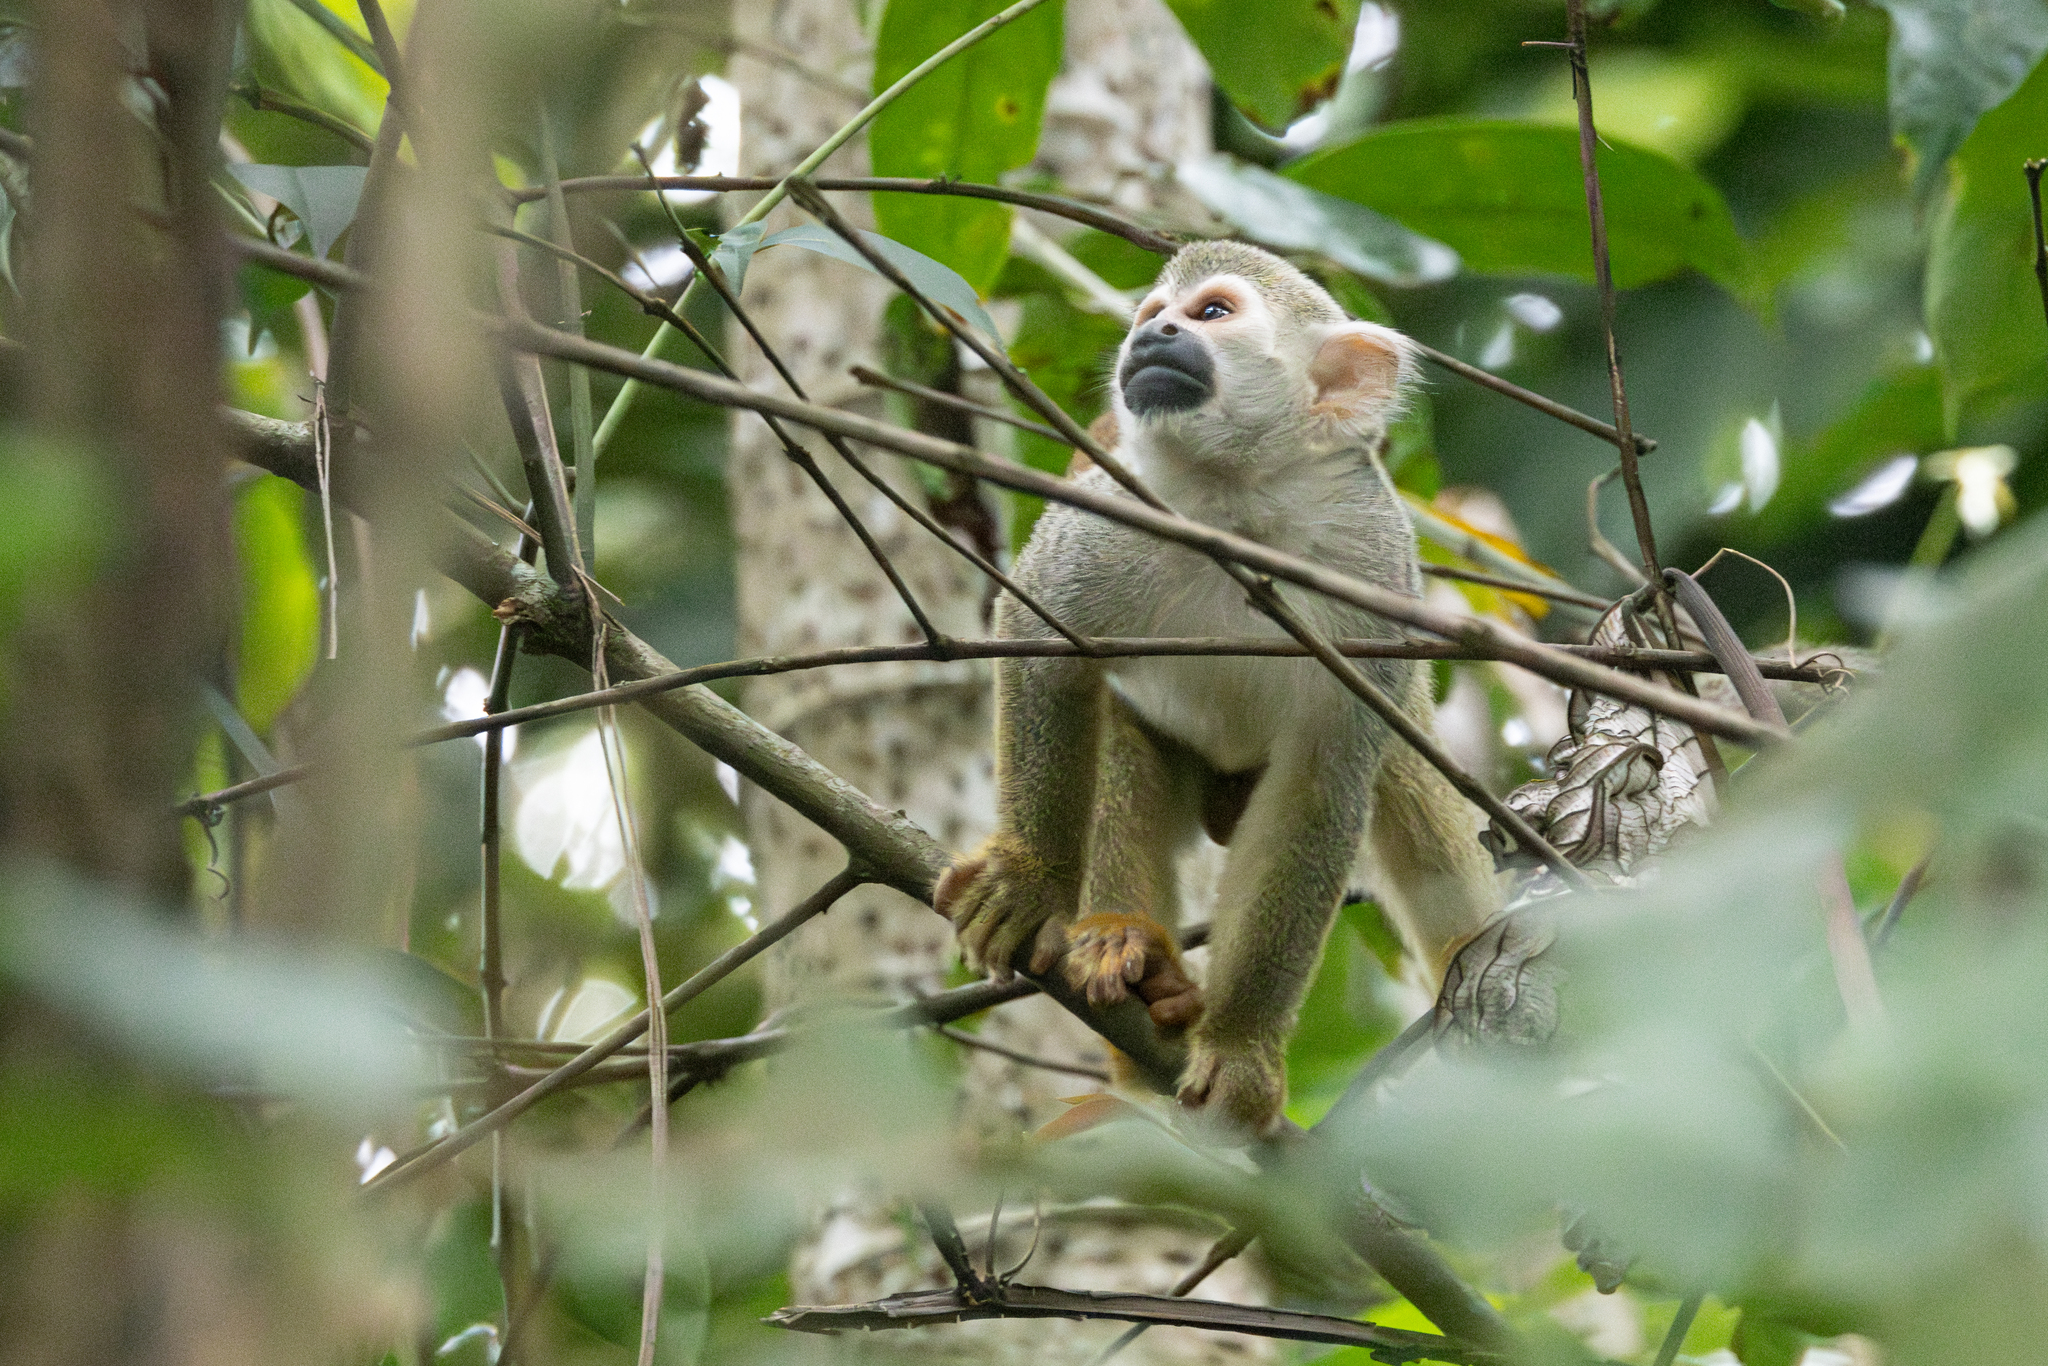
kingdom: Animalia
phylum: Chordata
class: Mammalia
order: Primates
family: Cebidae
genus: Saimiri
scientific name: Saimiri cassiquiarensis
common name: Humboldt’s squirrel monkey
